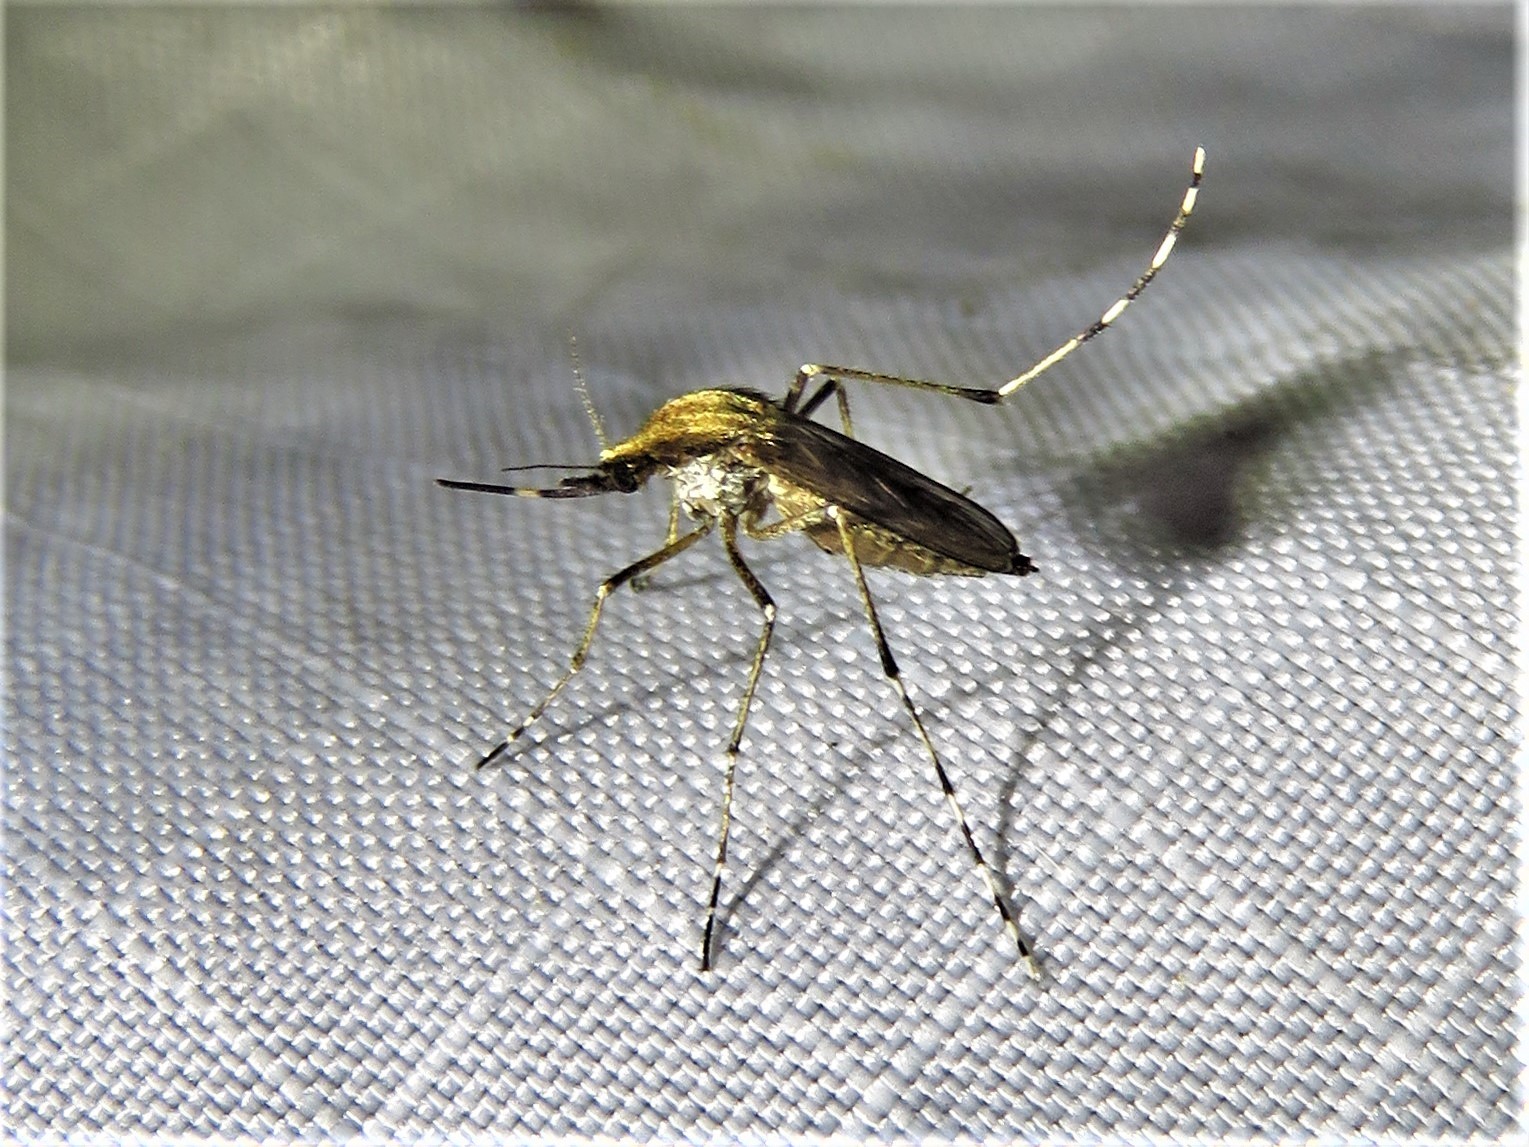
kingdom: Animalia
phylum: Arthropoda
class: Insecta
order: Diptera
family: Culicidae
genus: Aedes
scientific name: Aedes mitchellae
